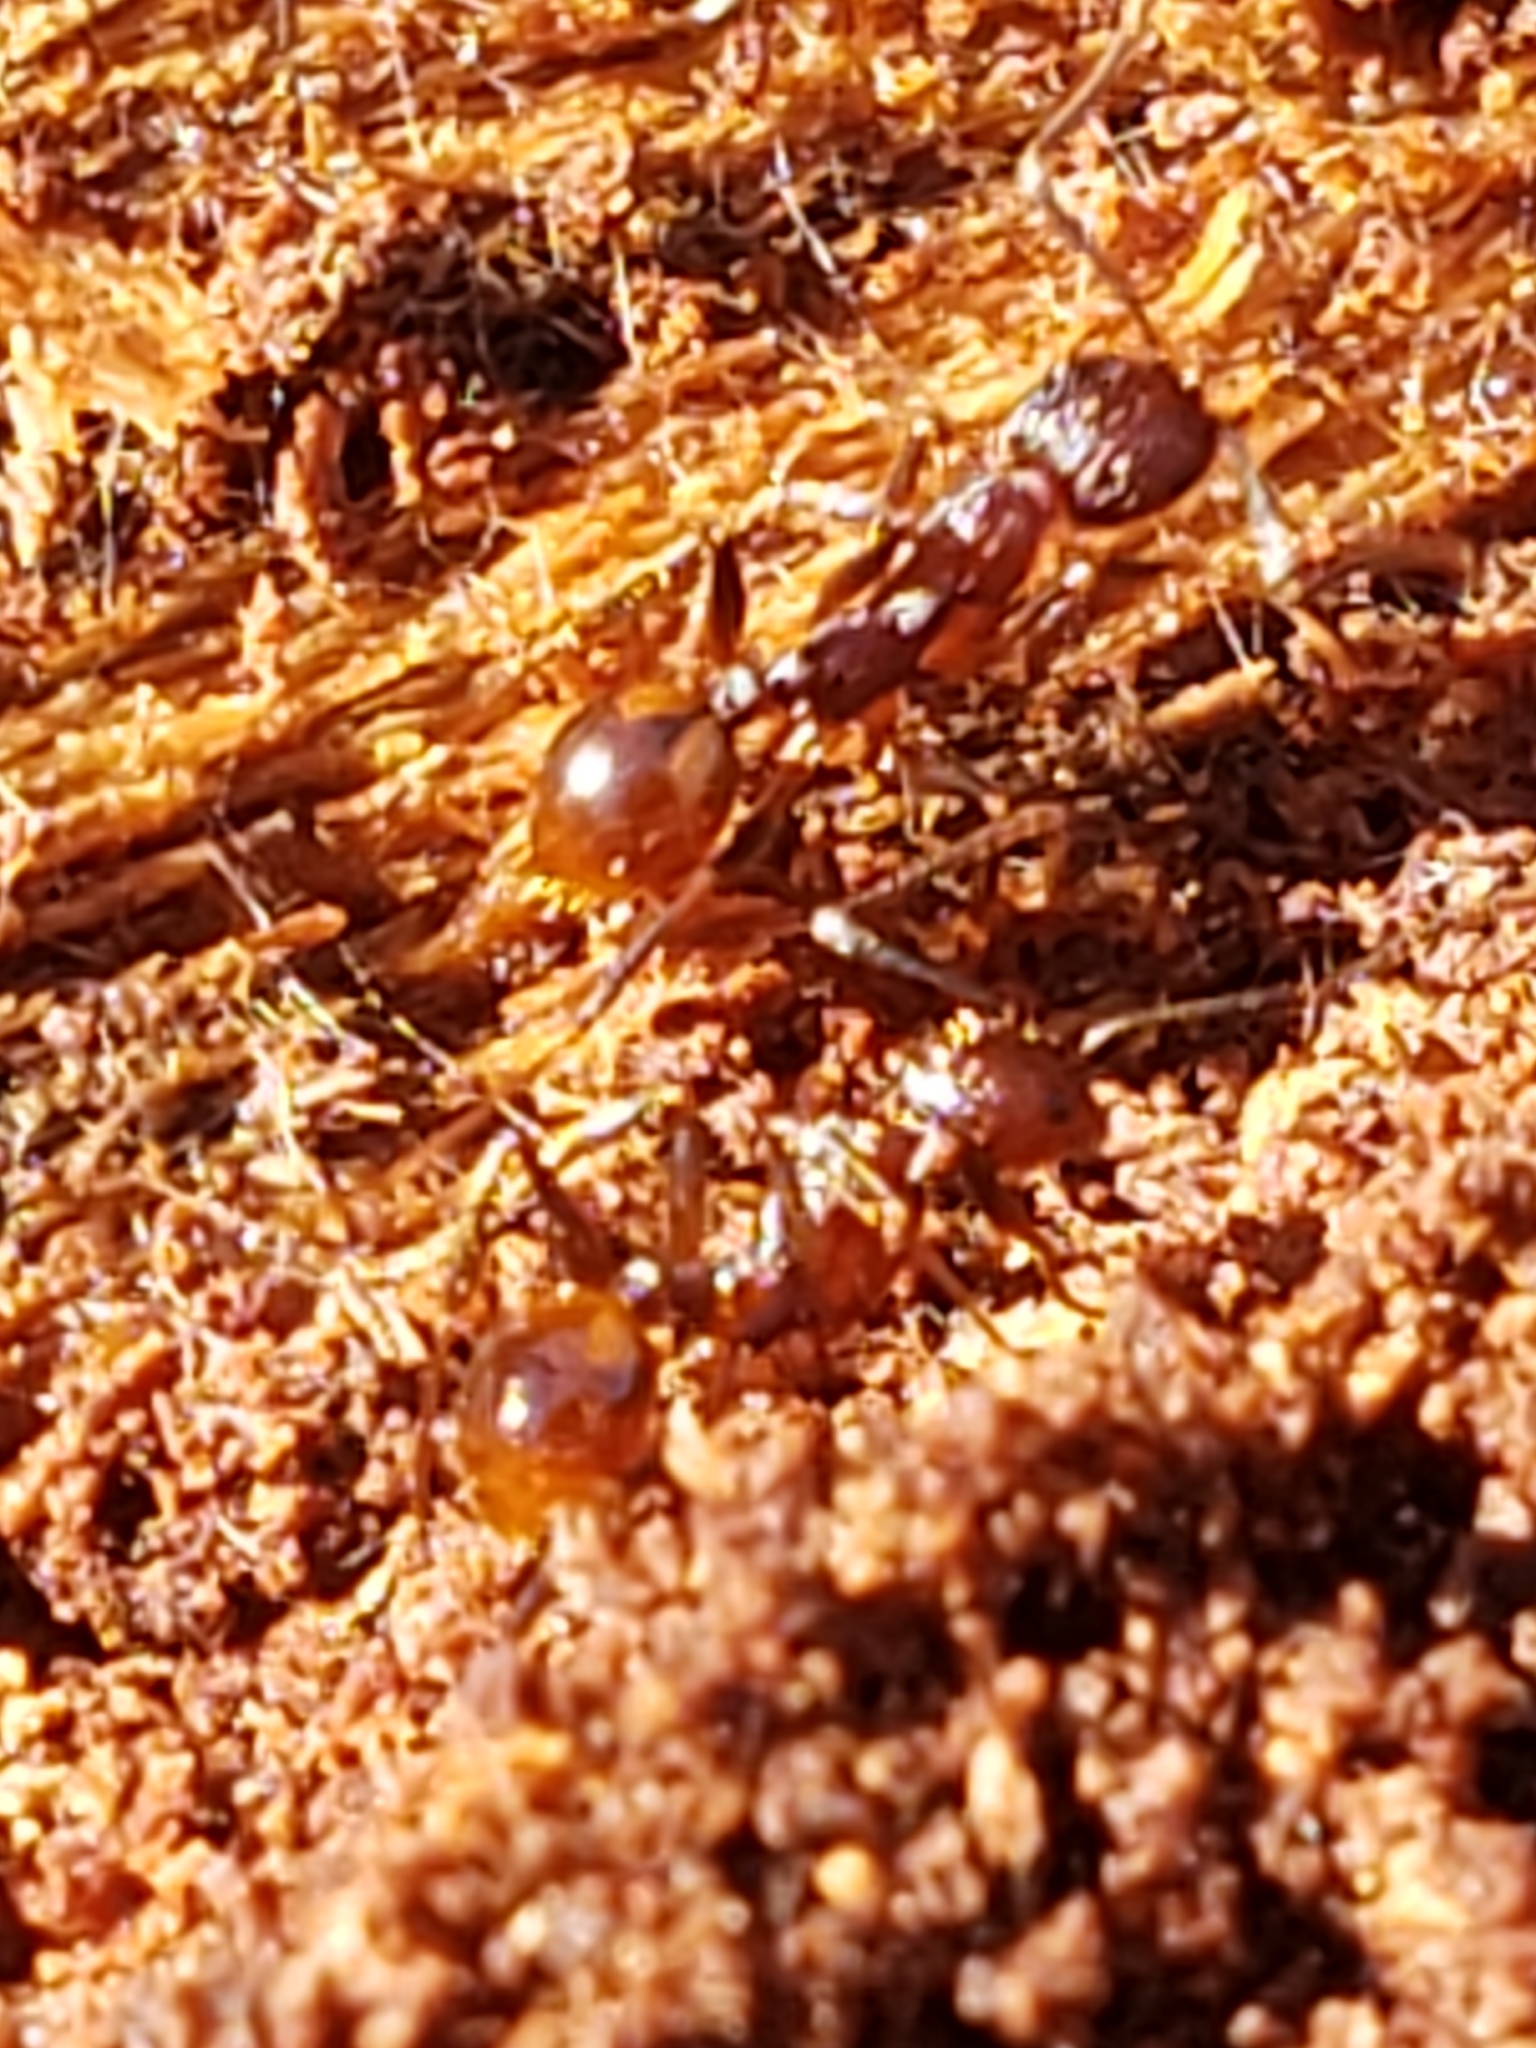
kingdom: Animalia
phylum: Arthropoda
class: Insecta
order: Hymenoptera
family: Formicidae
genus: Aphaenogaster
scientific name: Aphaenogaster fulva
